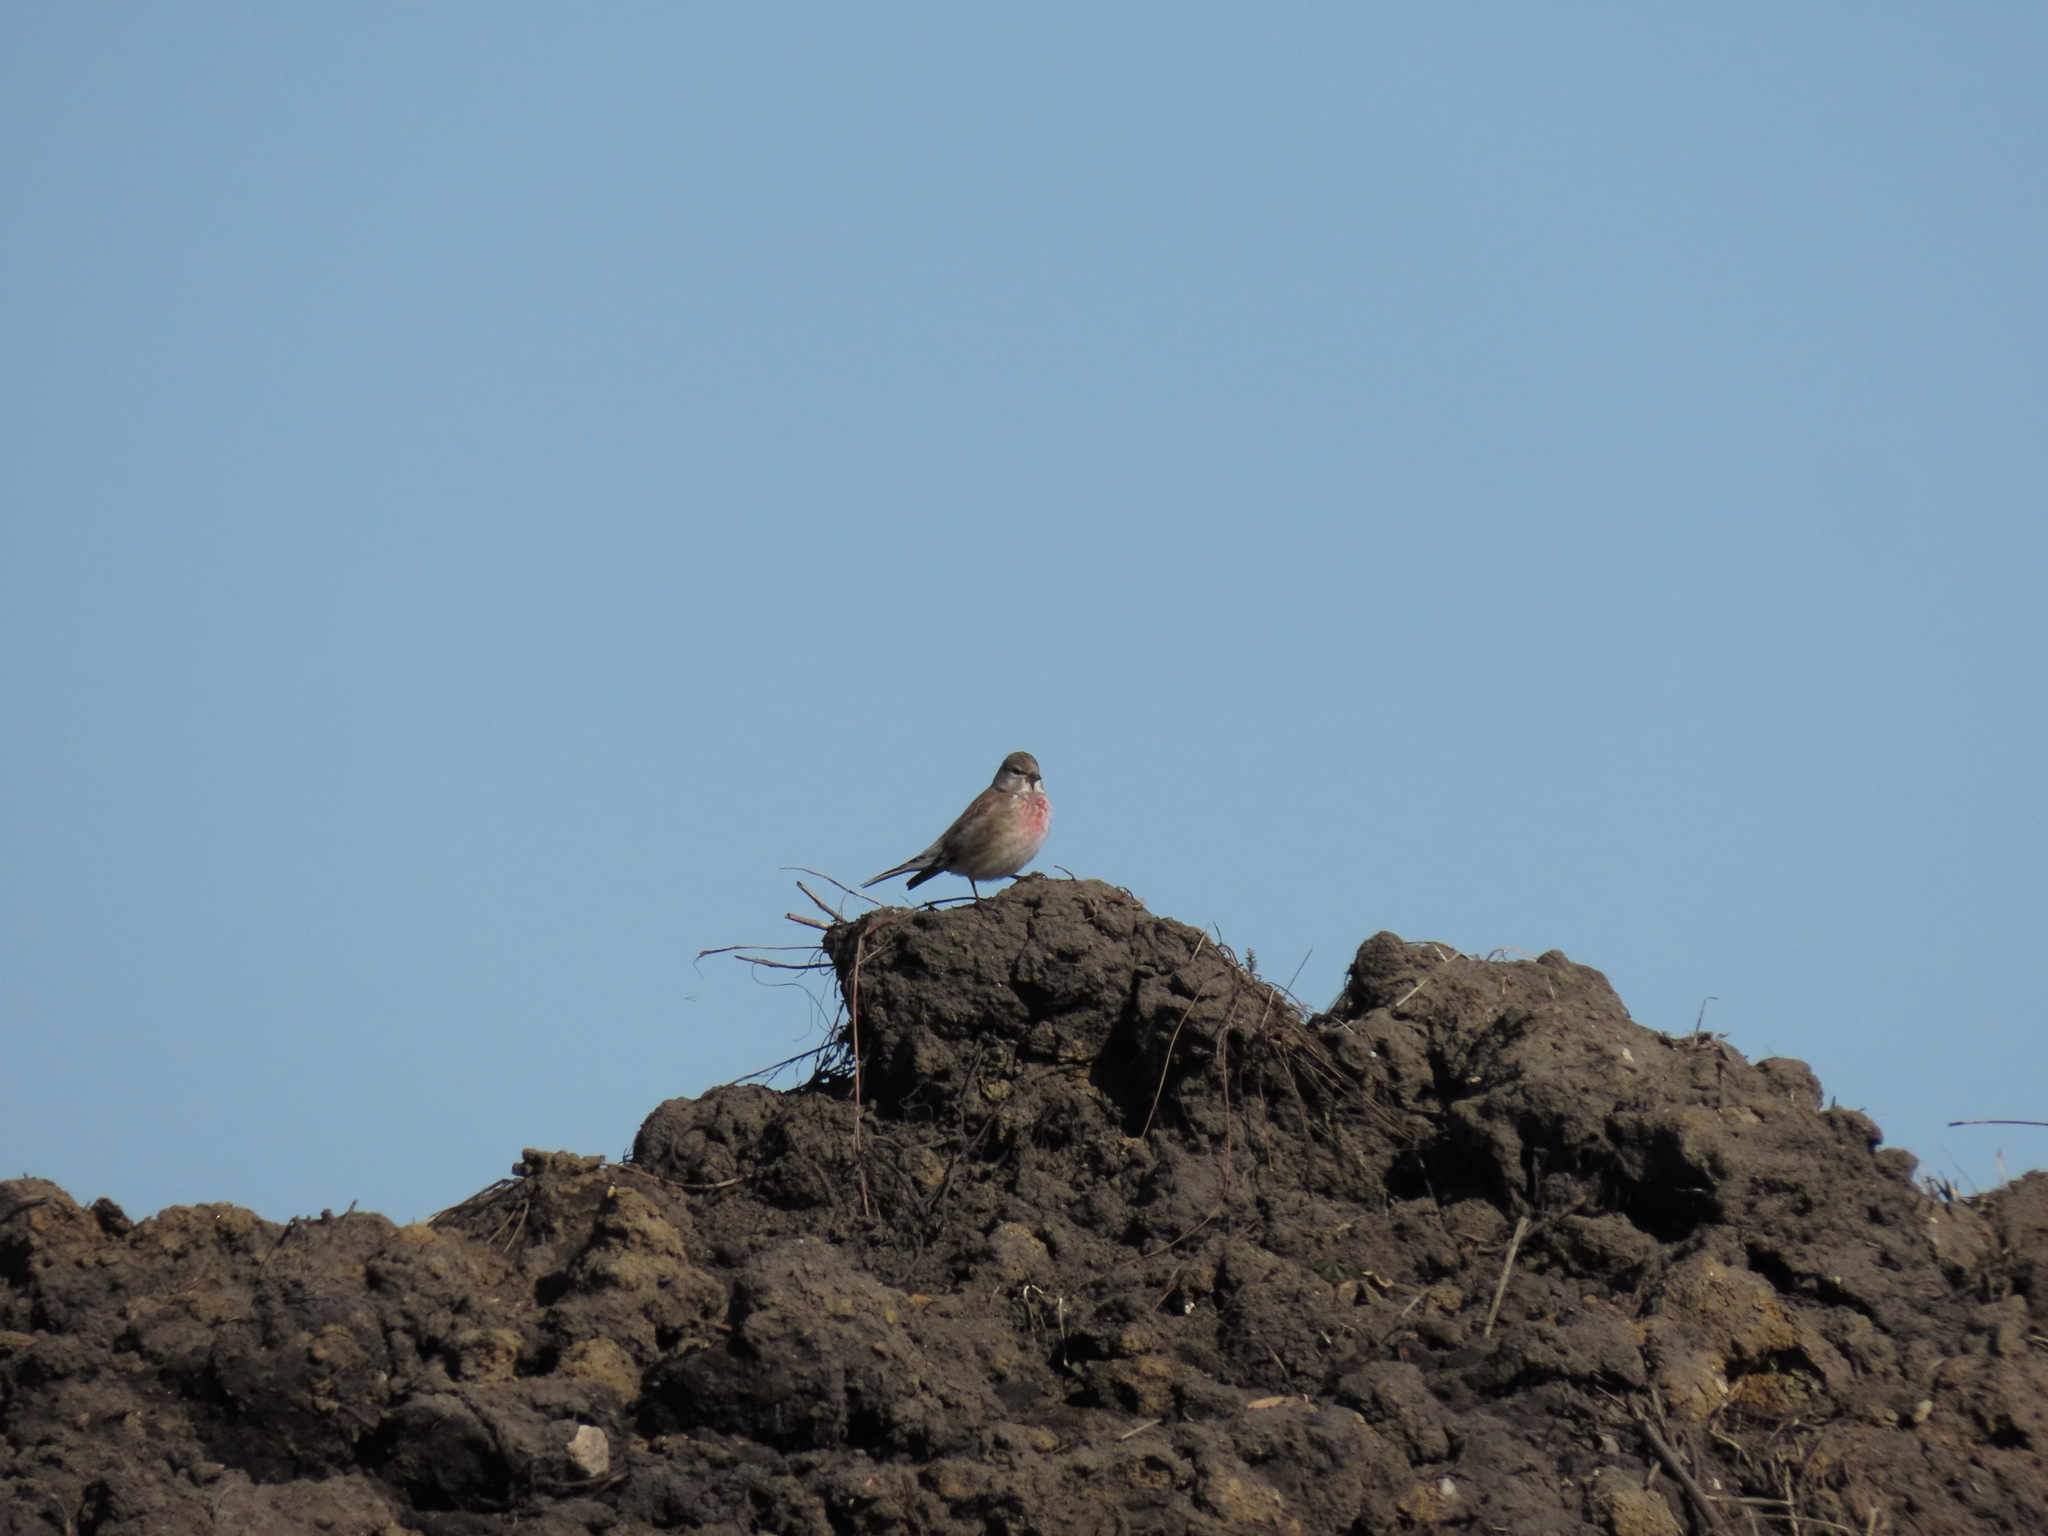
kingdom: Animalia
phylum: Chordata
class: Aves
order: Passeriformes
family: Fringillidae
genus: Linaria
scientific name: Linaria cannabina
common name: Common linnet
